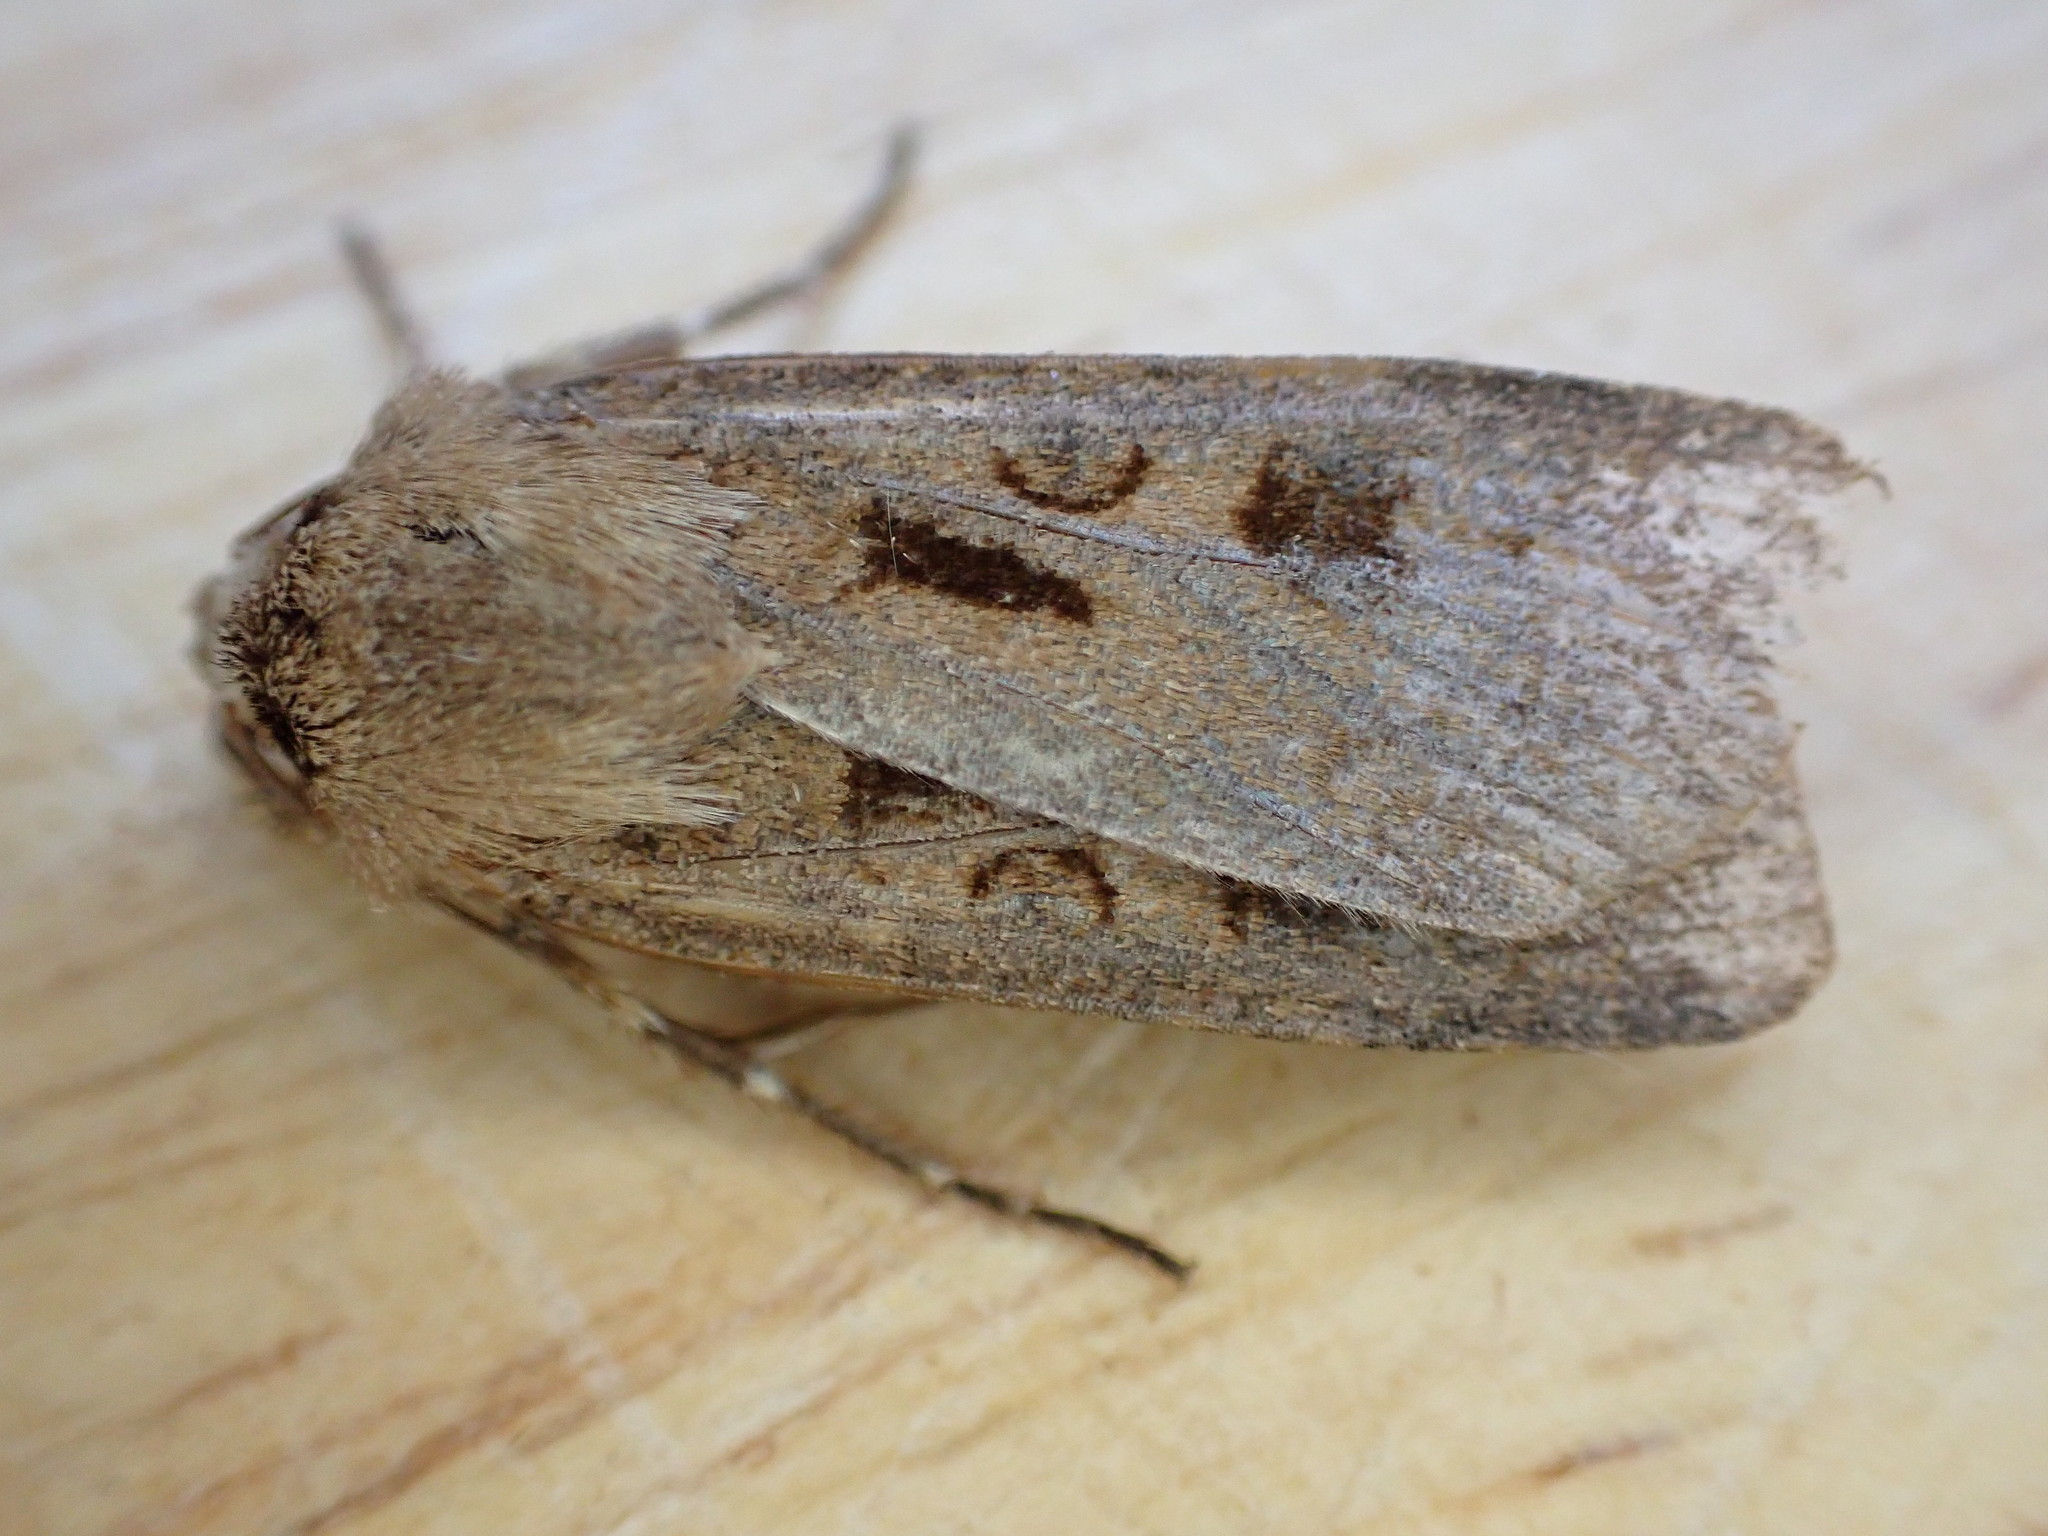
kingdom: Animalia
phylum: Arthropoda
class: Insecta
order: Lepidoptera
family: Noctuidae
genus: Agrotis
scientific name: Agrotis exclamationis
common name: Heart and dart
